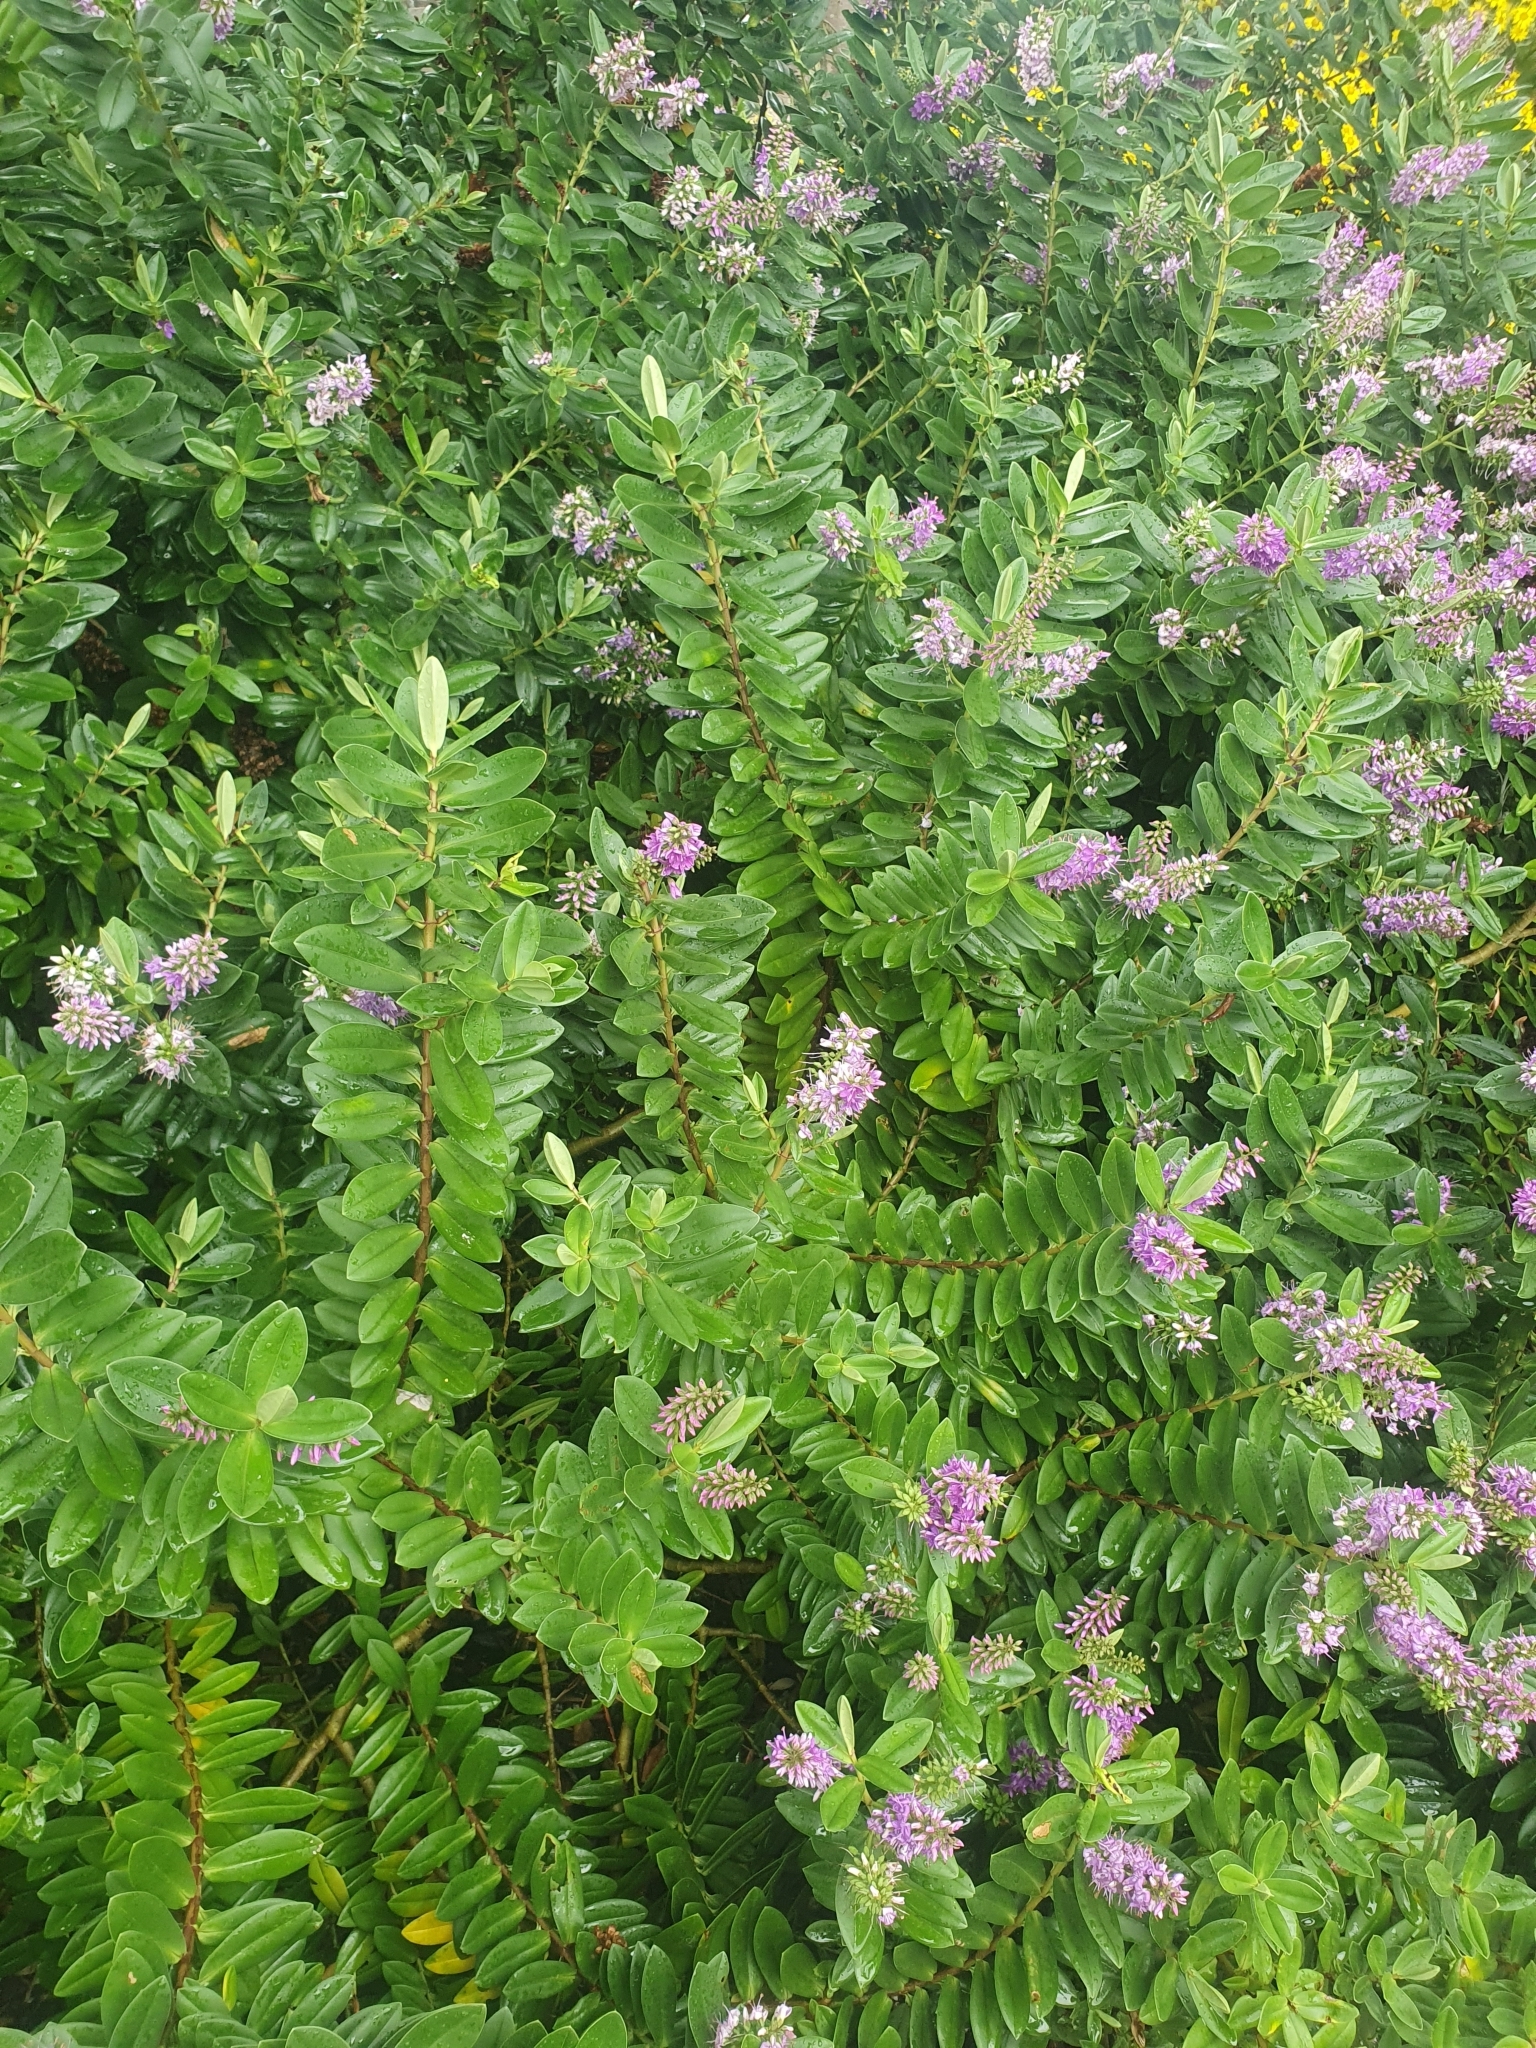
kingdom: Plantae
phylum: Tracheophyta
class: Magnoliopsida
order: Lamiales
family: Plantaginaceae
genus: Veronica
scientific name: Veronica franciscana
